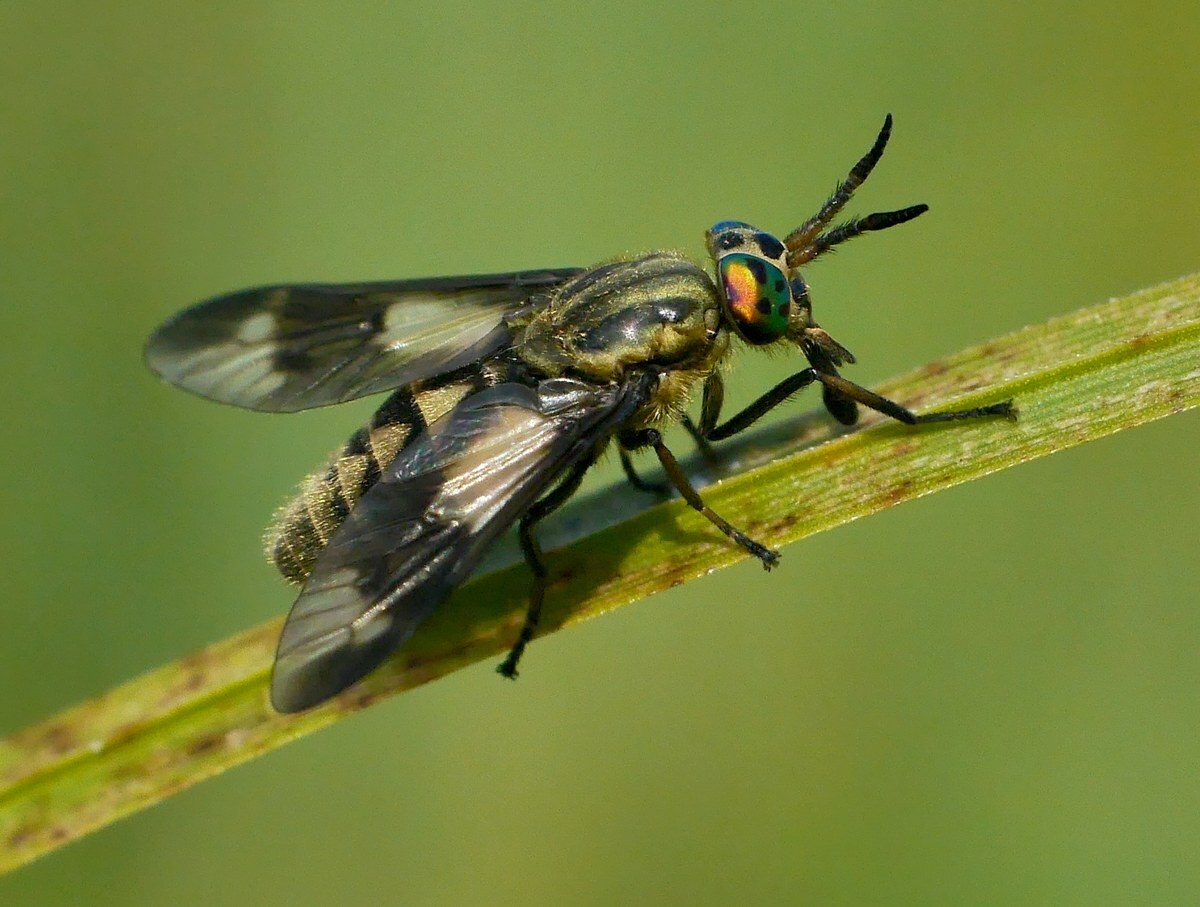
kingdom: Animalia
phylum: Arthropoda
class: Insecta
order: Diptera
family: Tabanidae
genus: Chrysops
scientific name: Chrysops relictus
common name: Twin-lobed deerfly
